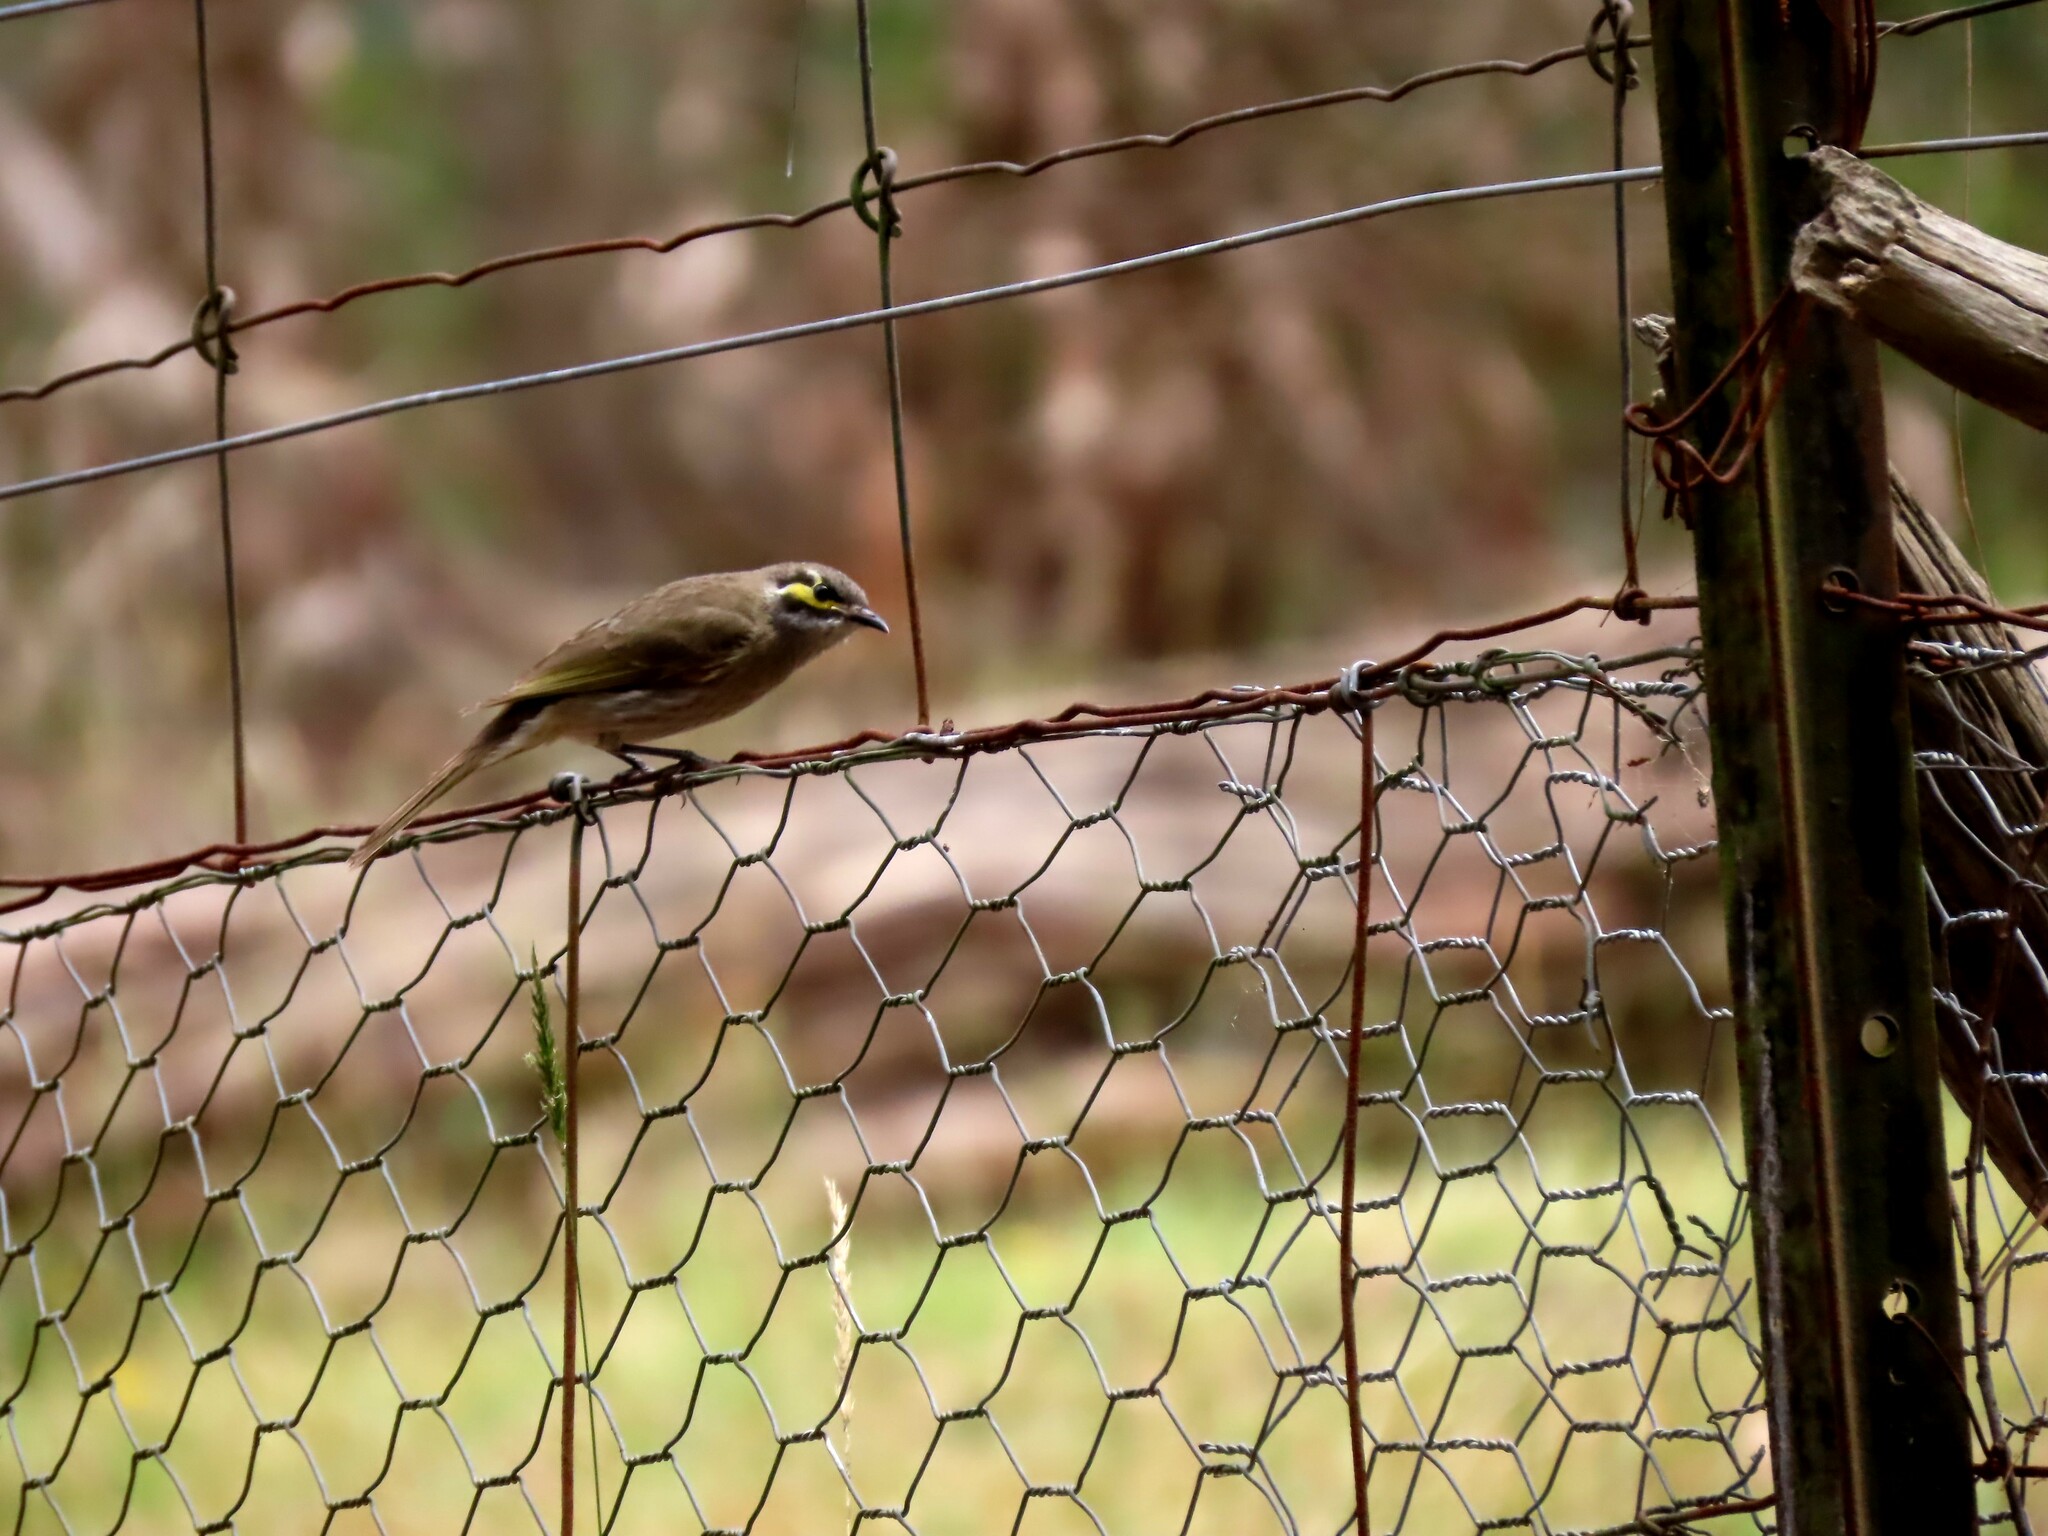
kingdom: Animalia
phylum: Chordata
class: Aves
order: Passeriformes
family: Meliphagidae
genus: Caligavis
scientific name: Caligavis chrysops
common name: Yellow-faced honeyeater
